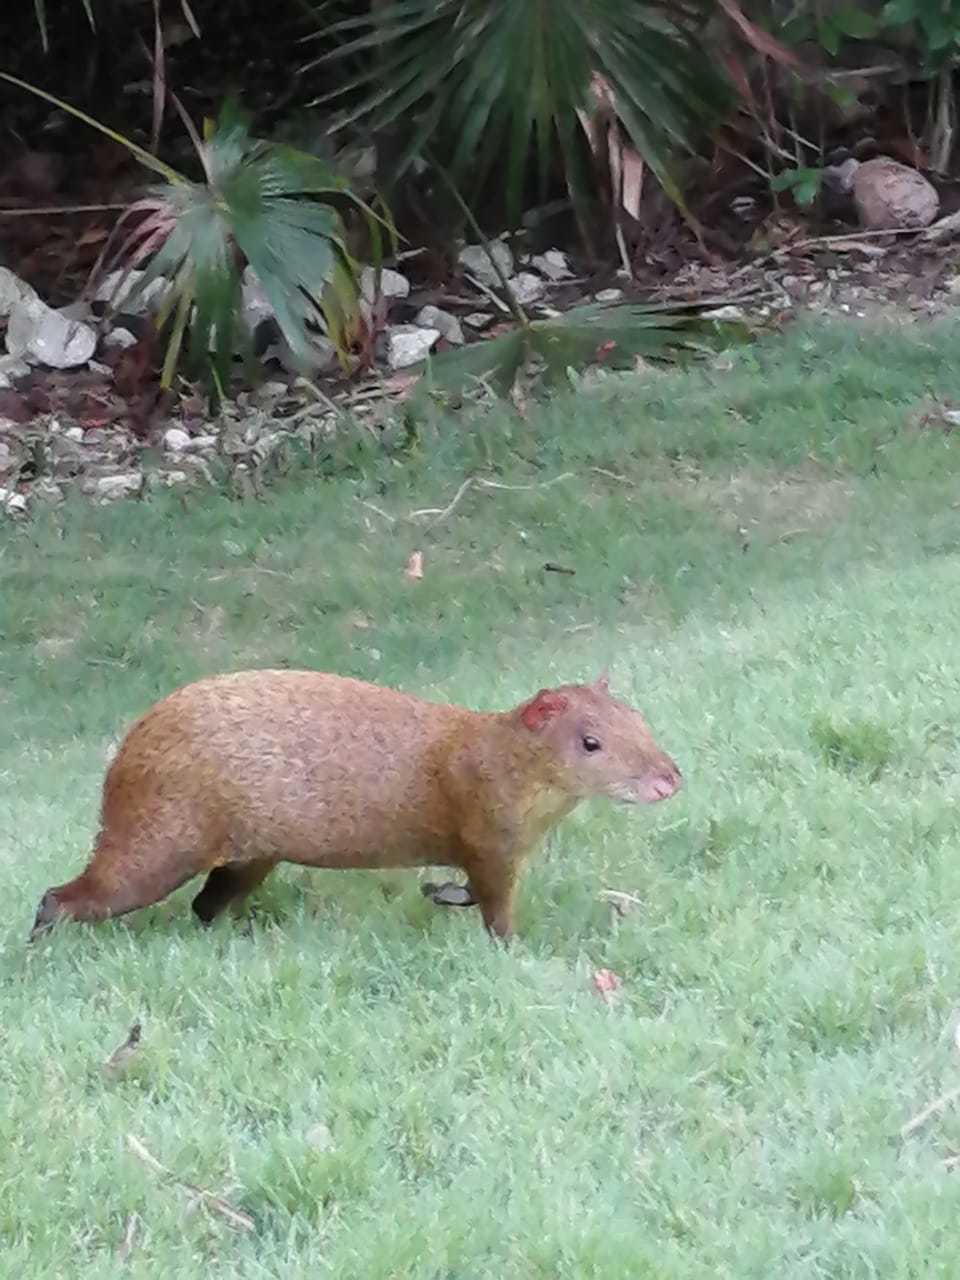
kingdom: Animalia
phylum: Chordata
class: Mammalia
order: Rodentia
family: Dasyproctidae
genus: Dasyprocta
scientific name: Dasyprocta punctata
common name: Central american agouti
